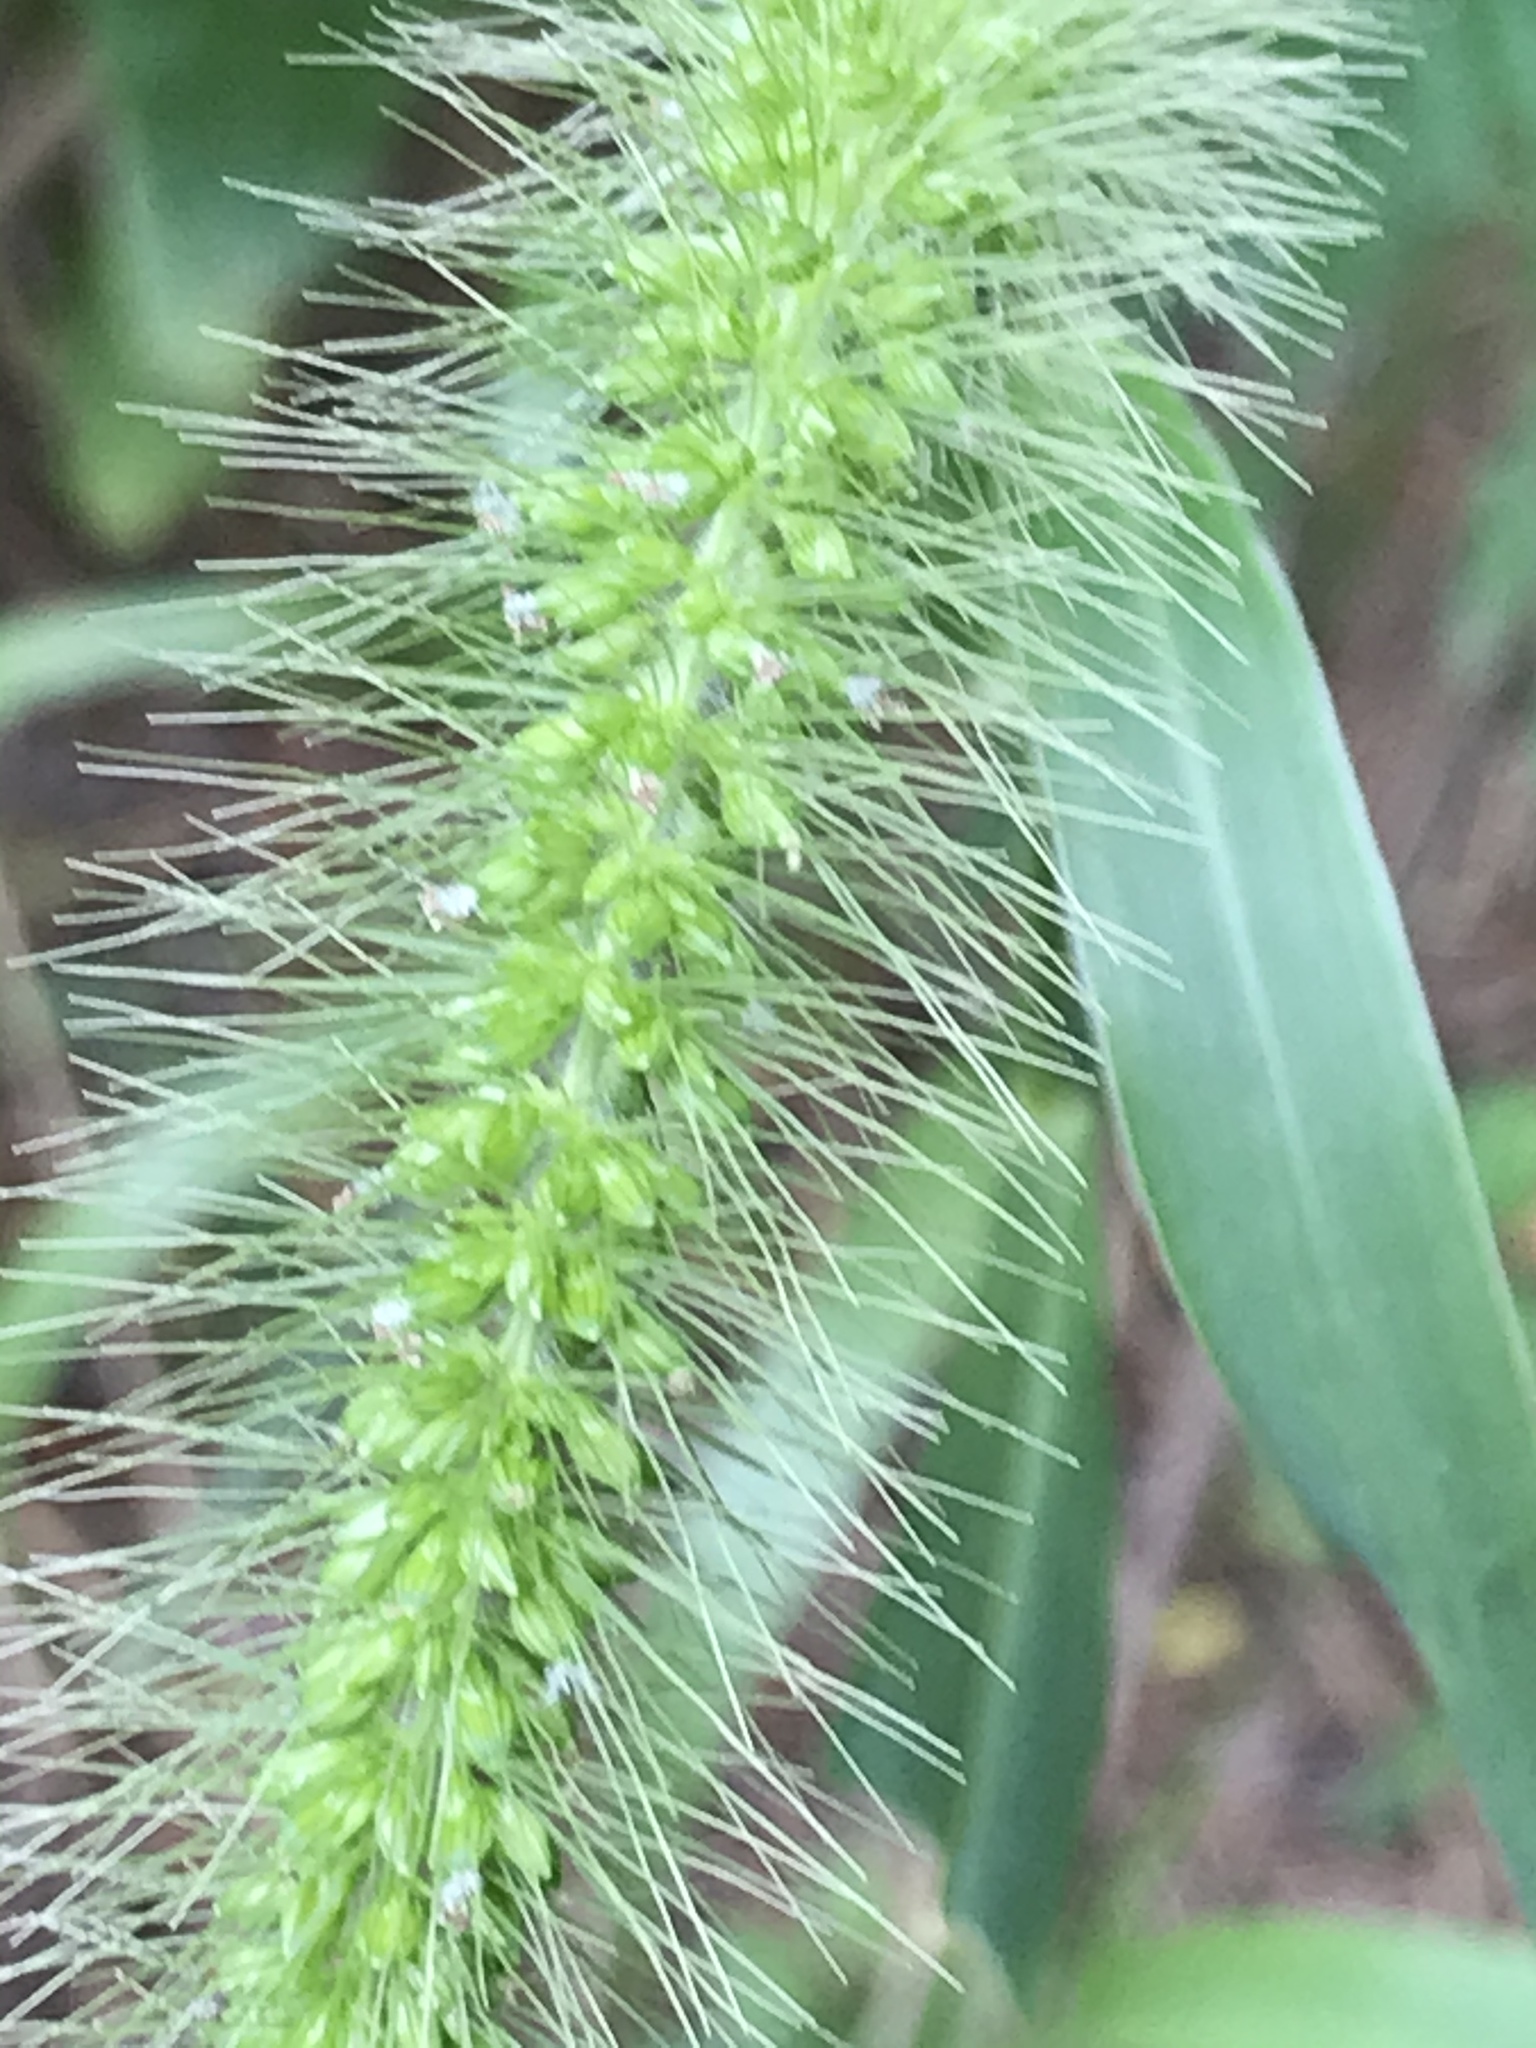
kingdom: Plantae
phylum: Tracheophyta
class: Liliopsida
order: Poales
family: Poaceae
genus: Setaria
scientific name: Setaria faberi
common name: Nodding bristle-grass
